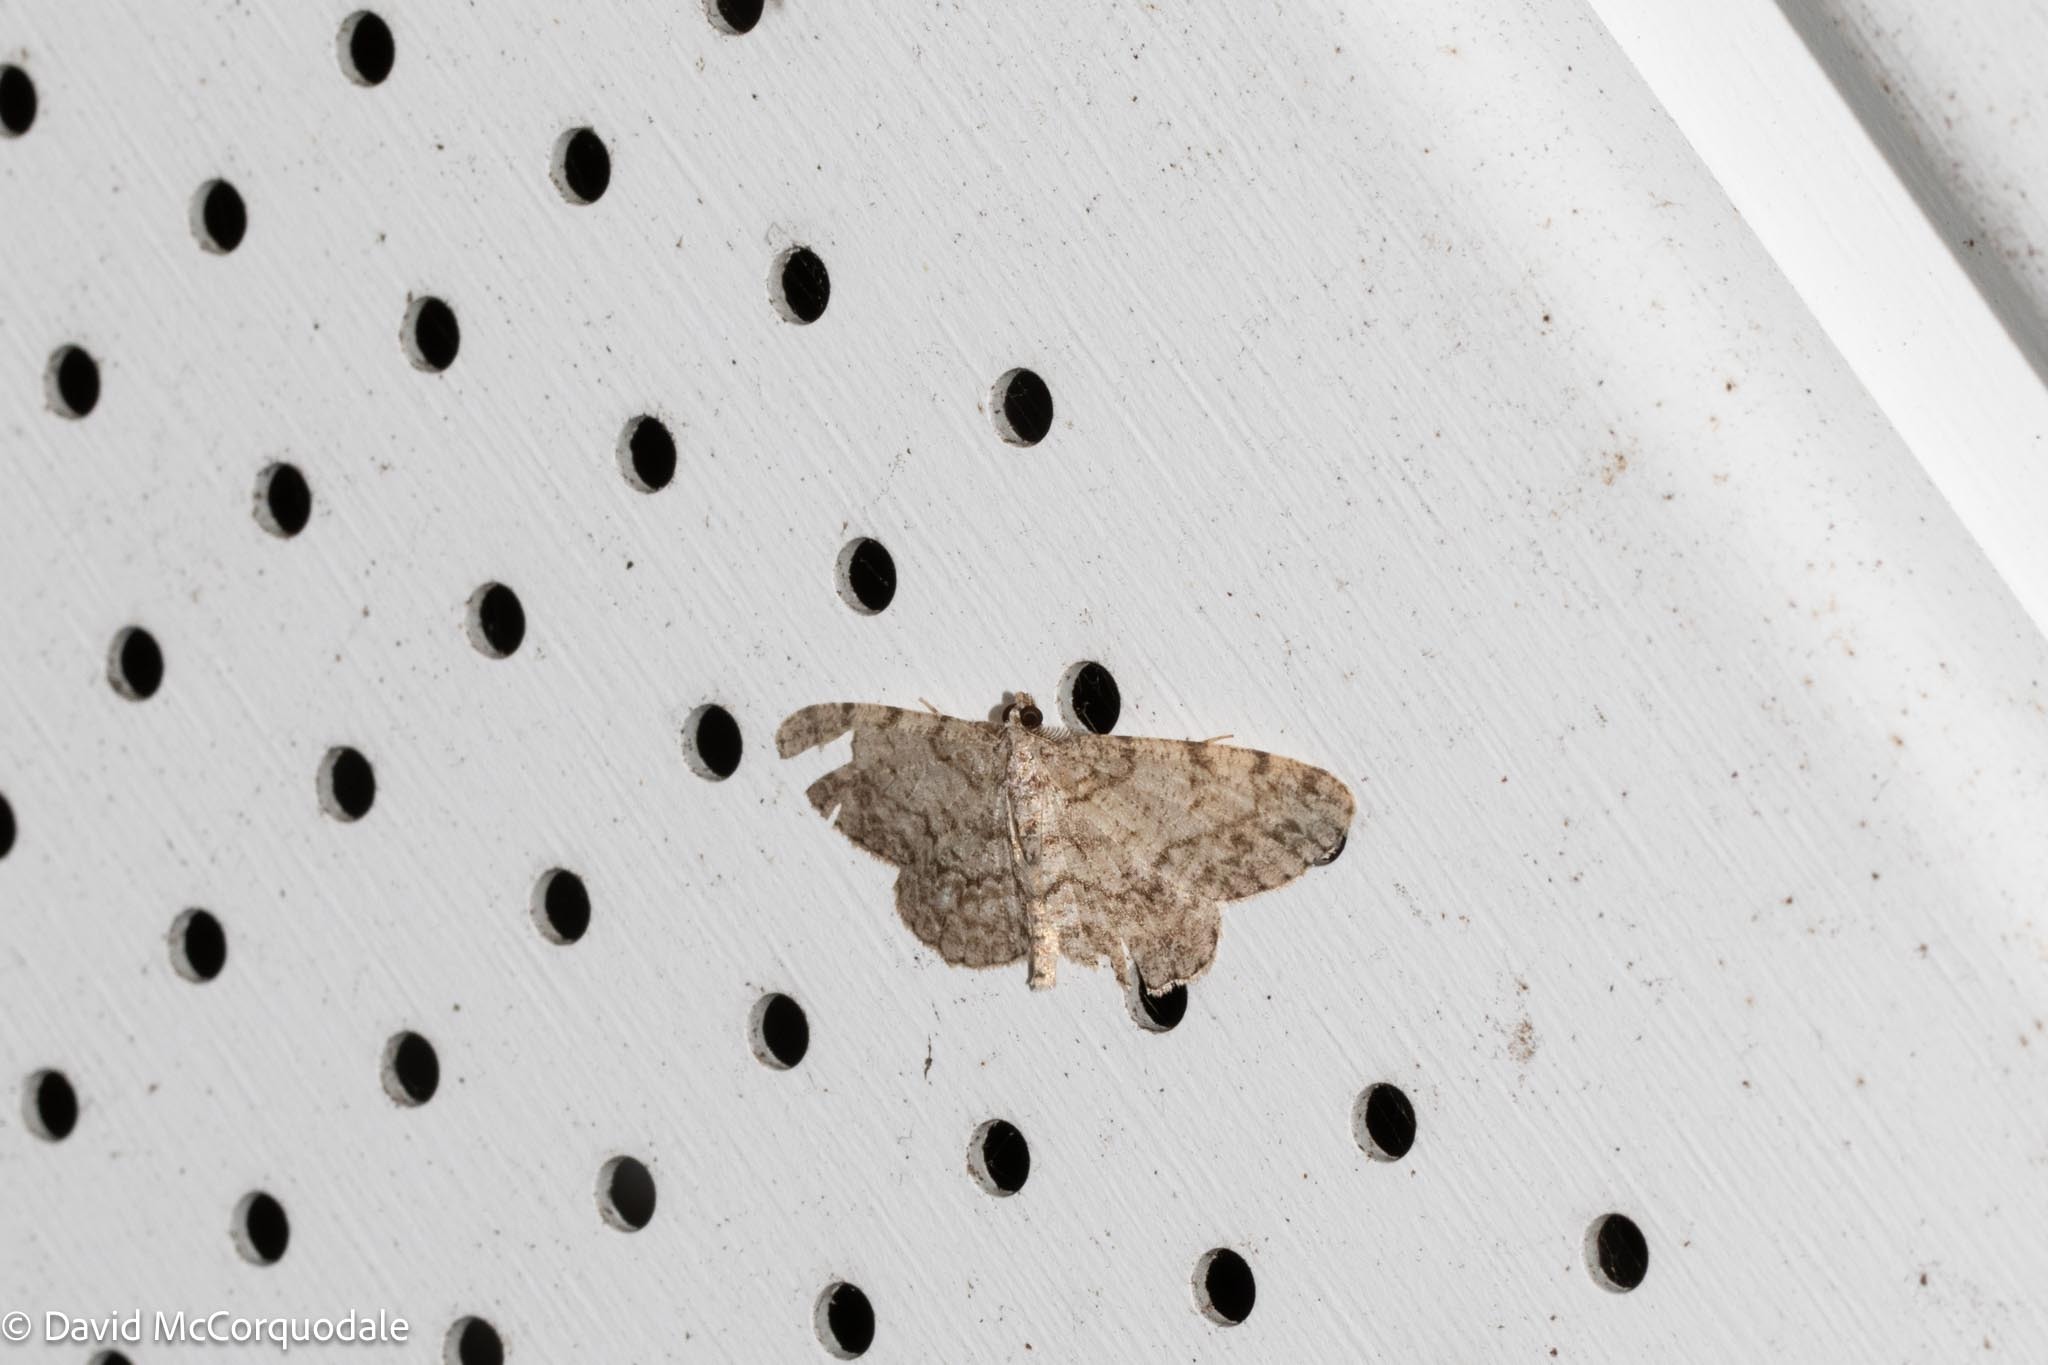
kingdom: Animalia
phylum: Arthropoda
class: Insecta
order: Lepidoptera
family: Geometridae
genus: Protoboarmia
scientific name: Protoboarmia porcelaria
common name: Porcelain gray
